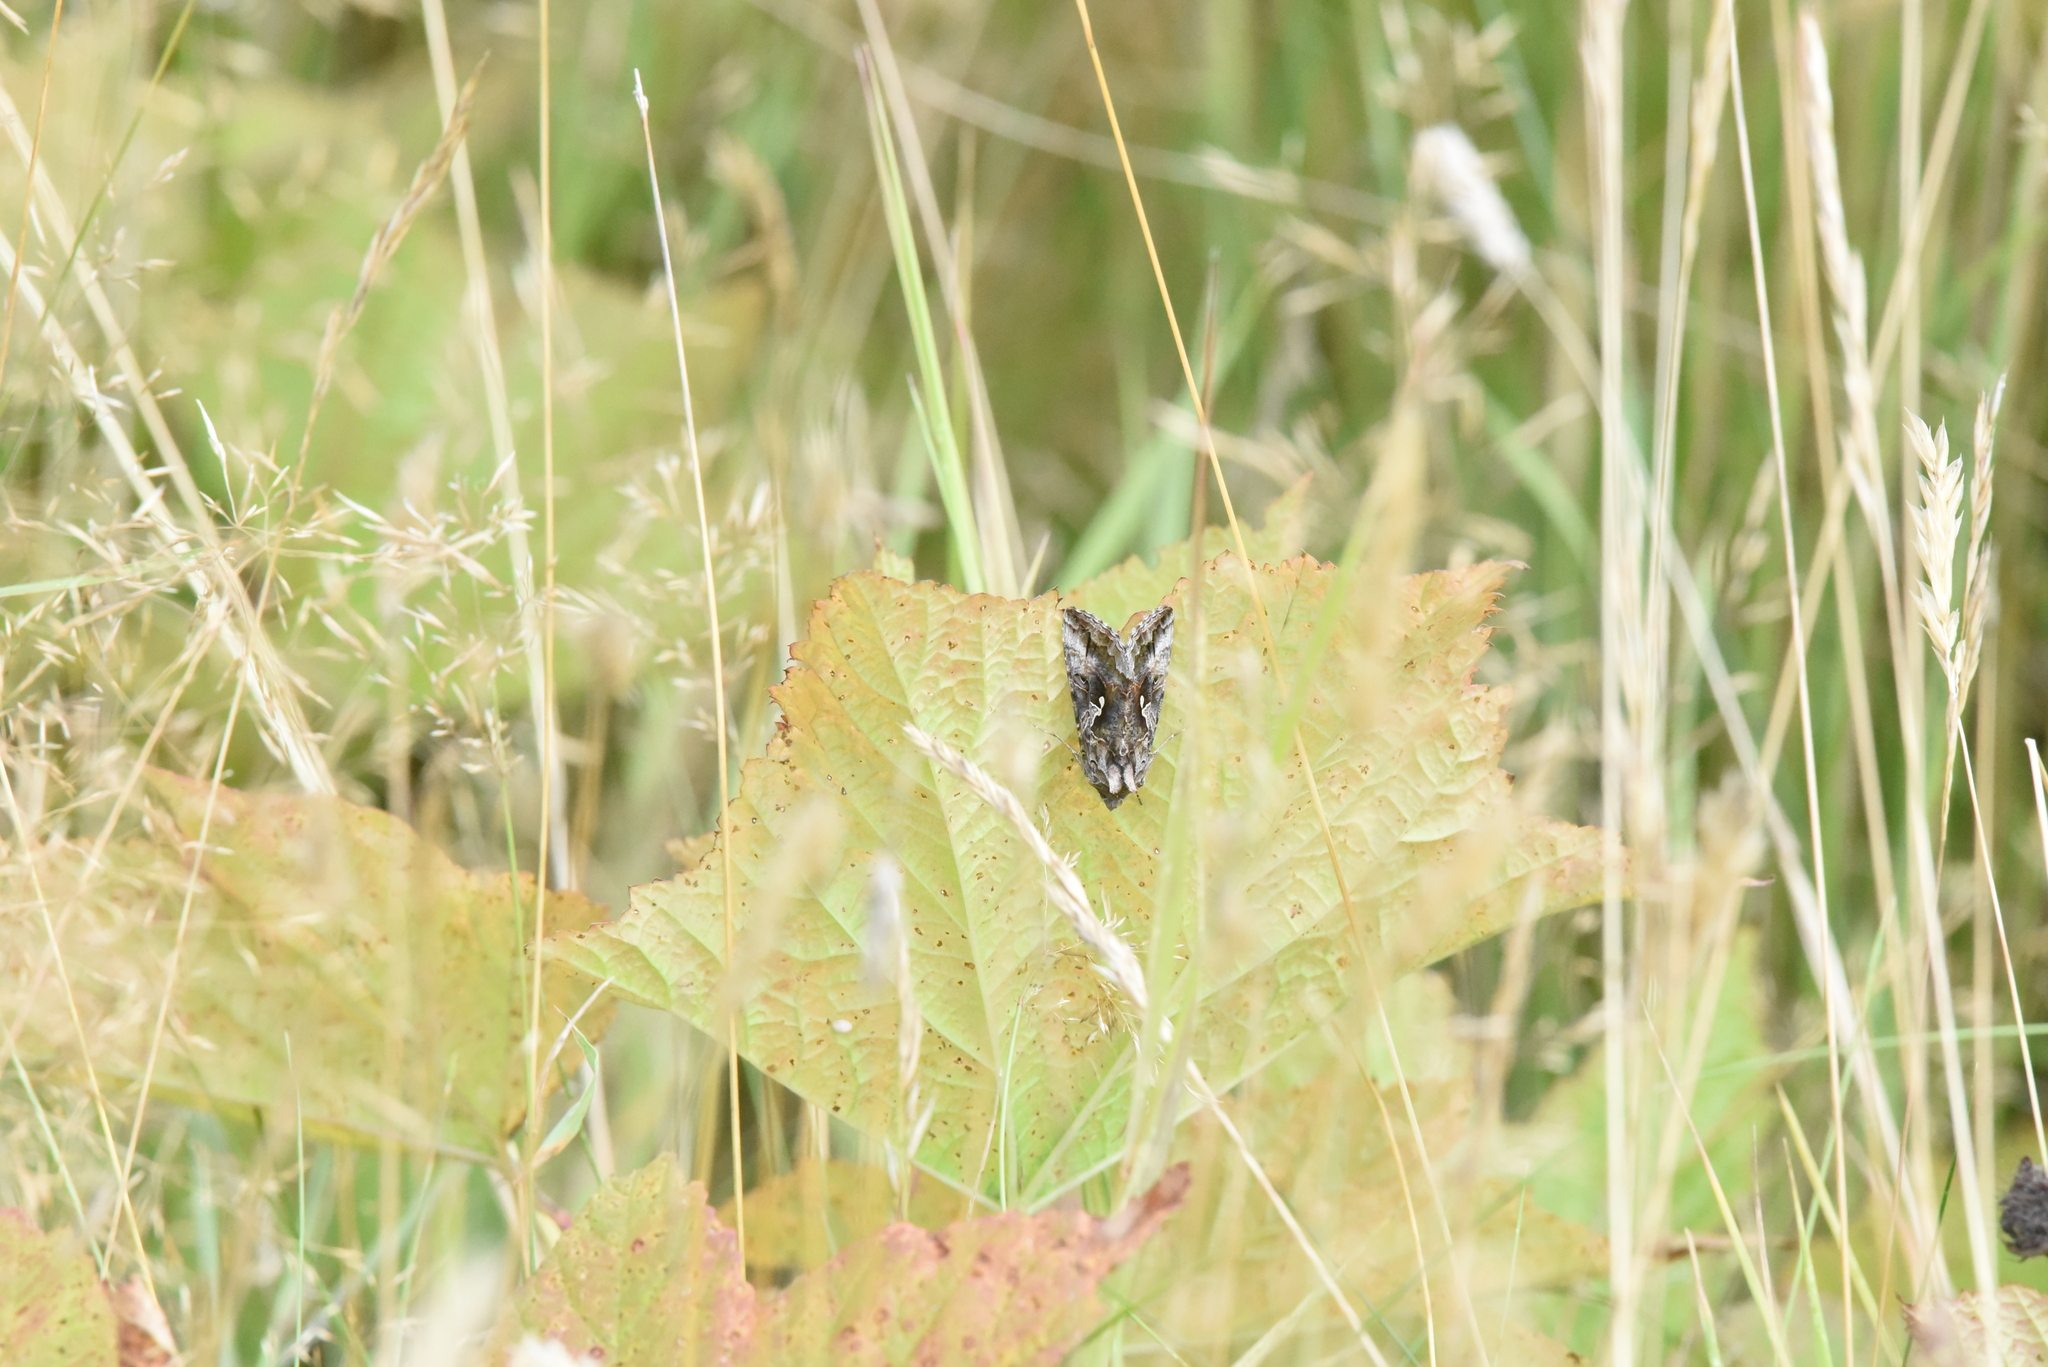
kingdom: Animalia
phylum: Arthropoda
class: Insecta
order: Lepidoptera
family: Noctuidae
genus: Autographa
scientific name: Autographa californica
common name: Alfalfa looper
